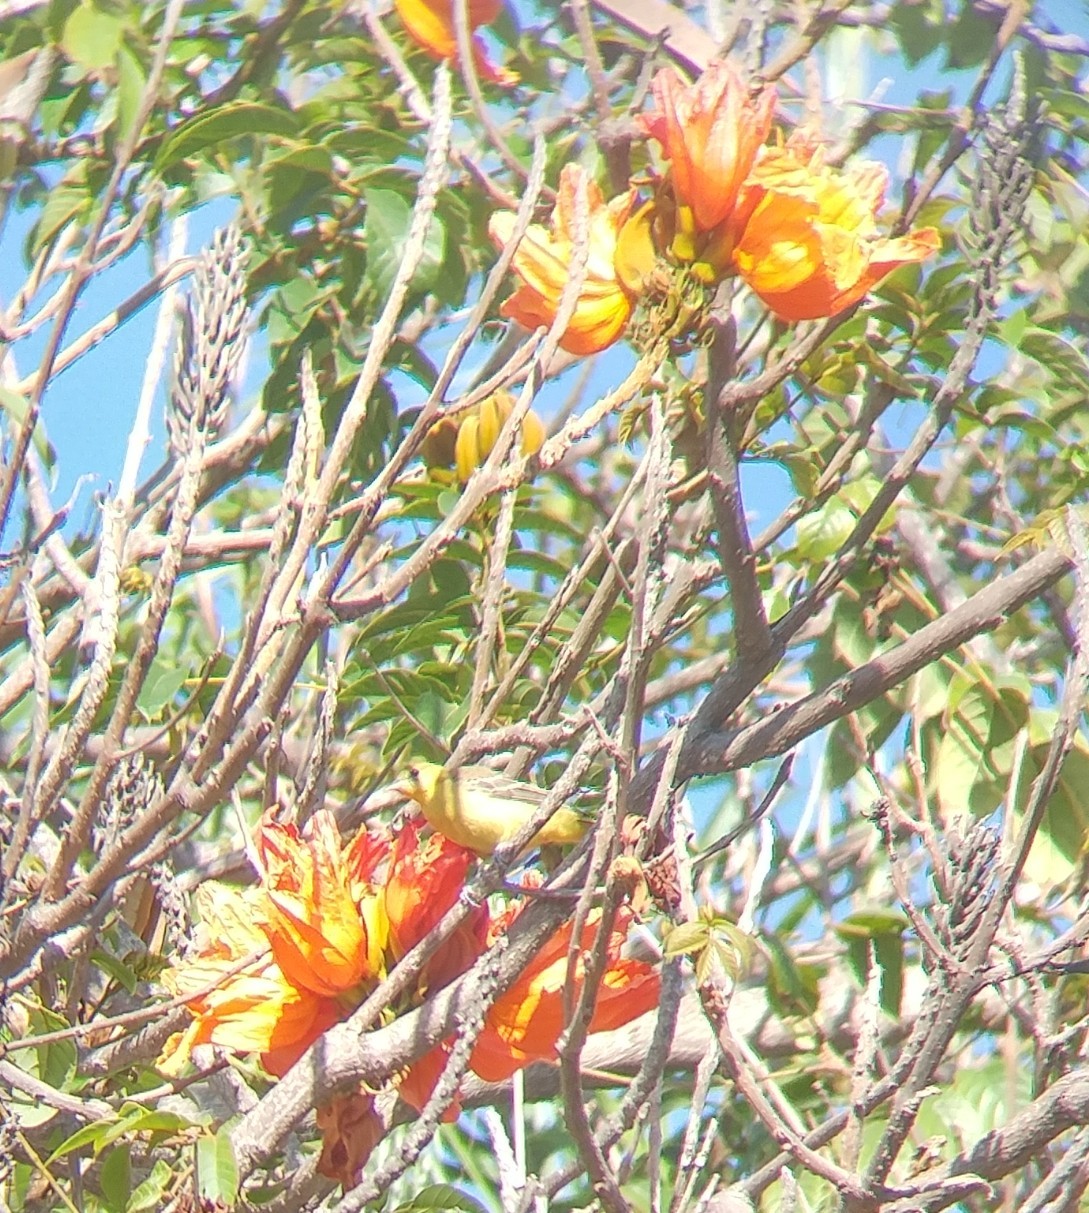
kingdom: Animalia
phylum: Chordata
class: Aves
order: Passeriformes
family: Icteridae
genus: Icterus
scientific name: Icterus cucullatus
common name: Hooded oriole
